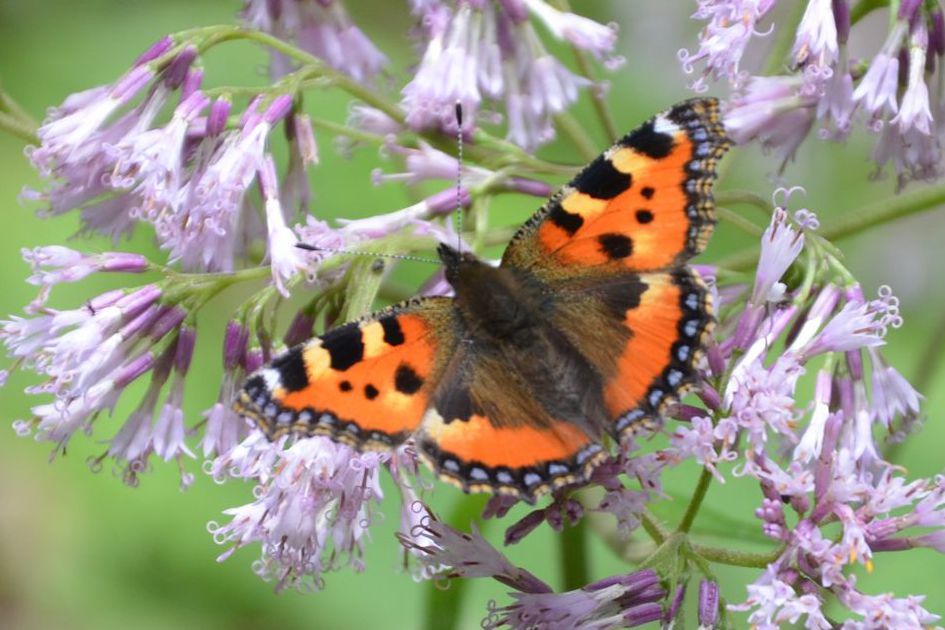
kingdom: Animalia
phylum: Arthropoda
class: Insecta
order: Lepidoptera
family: Nymphalidae
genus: Aglais
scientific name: Aglais urticae
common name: Small tortoiseshell
